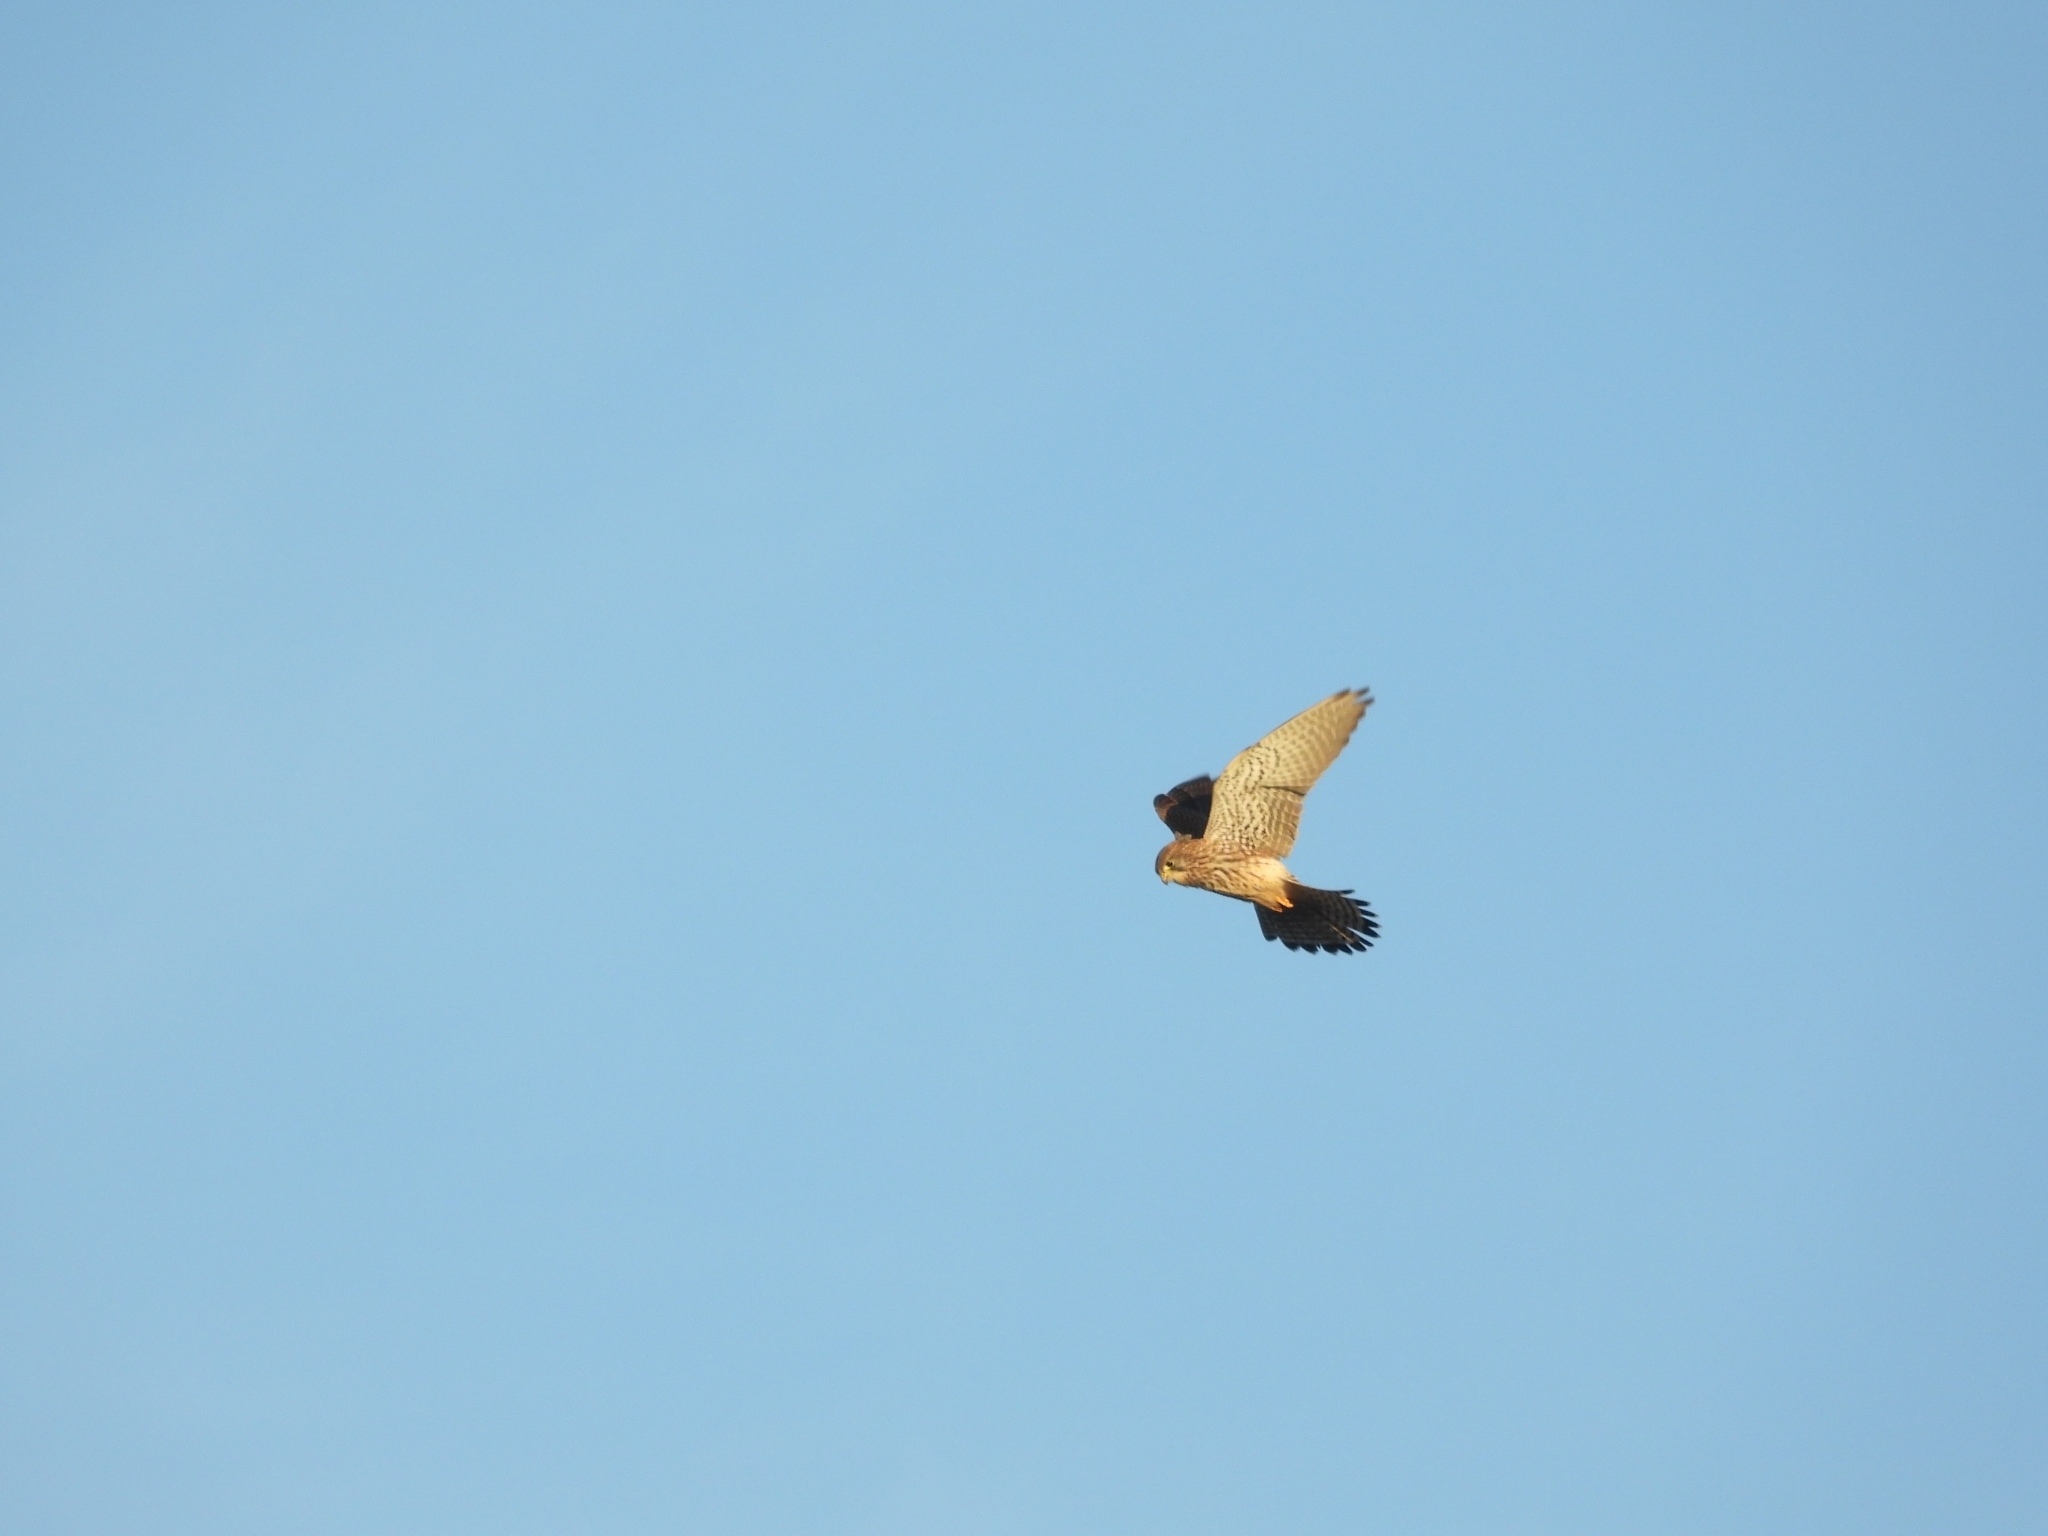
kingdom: Animalia
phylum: Chordata
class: Aves
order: Falconiformes
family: Falconidae
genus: Falco
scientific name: Falco tinnunculus
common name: Common kestrel
